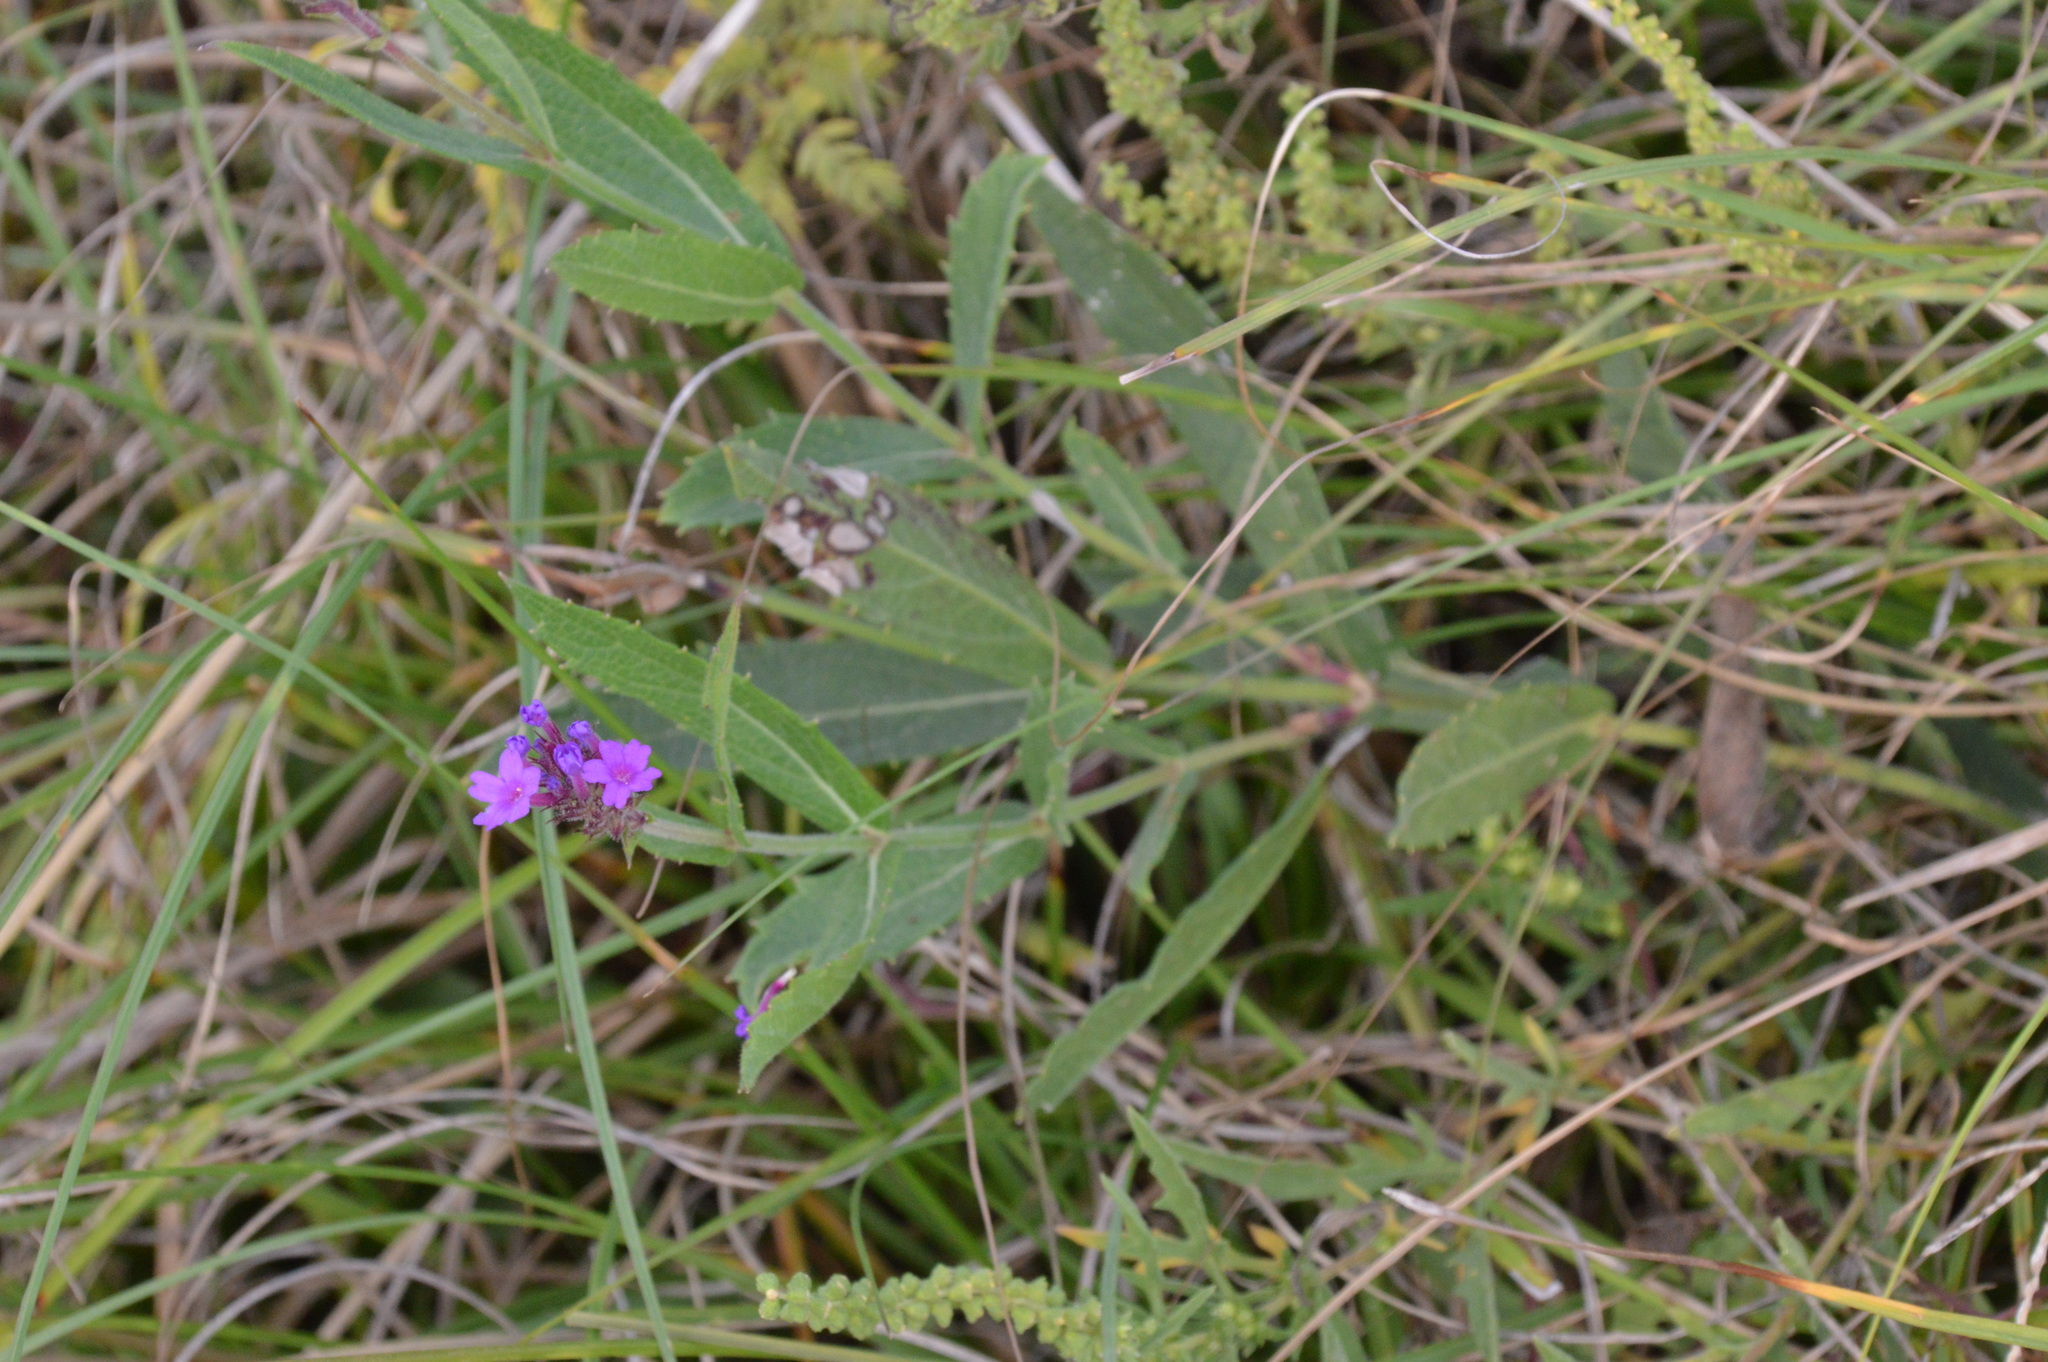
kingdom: Plantae
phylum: Tracheophyta
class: Magnoliopsida
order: Lamiales
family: Verbenaceae
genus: Verbena
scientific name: Verbena rigida
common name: Slender vervain
